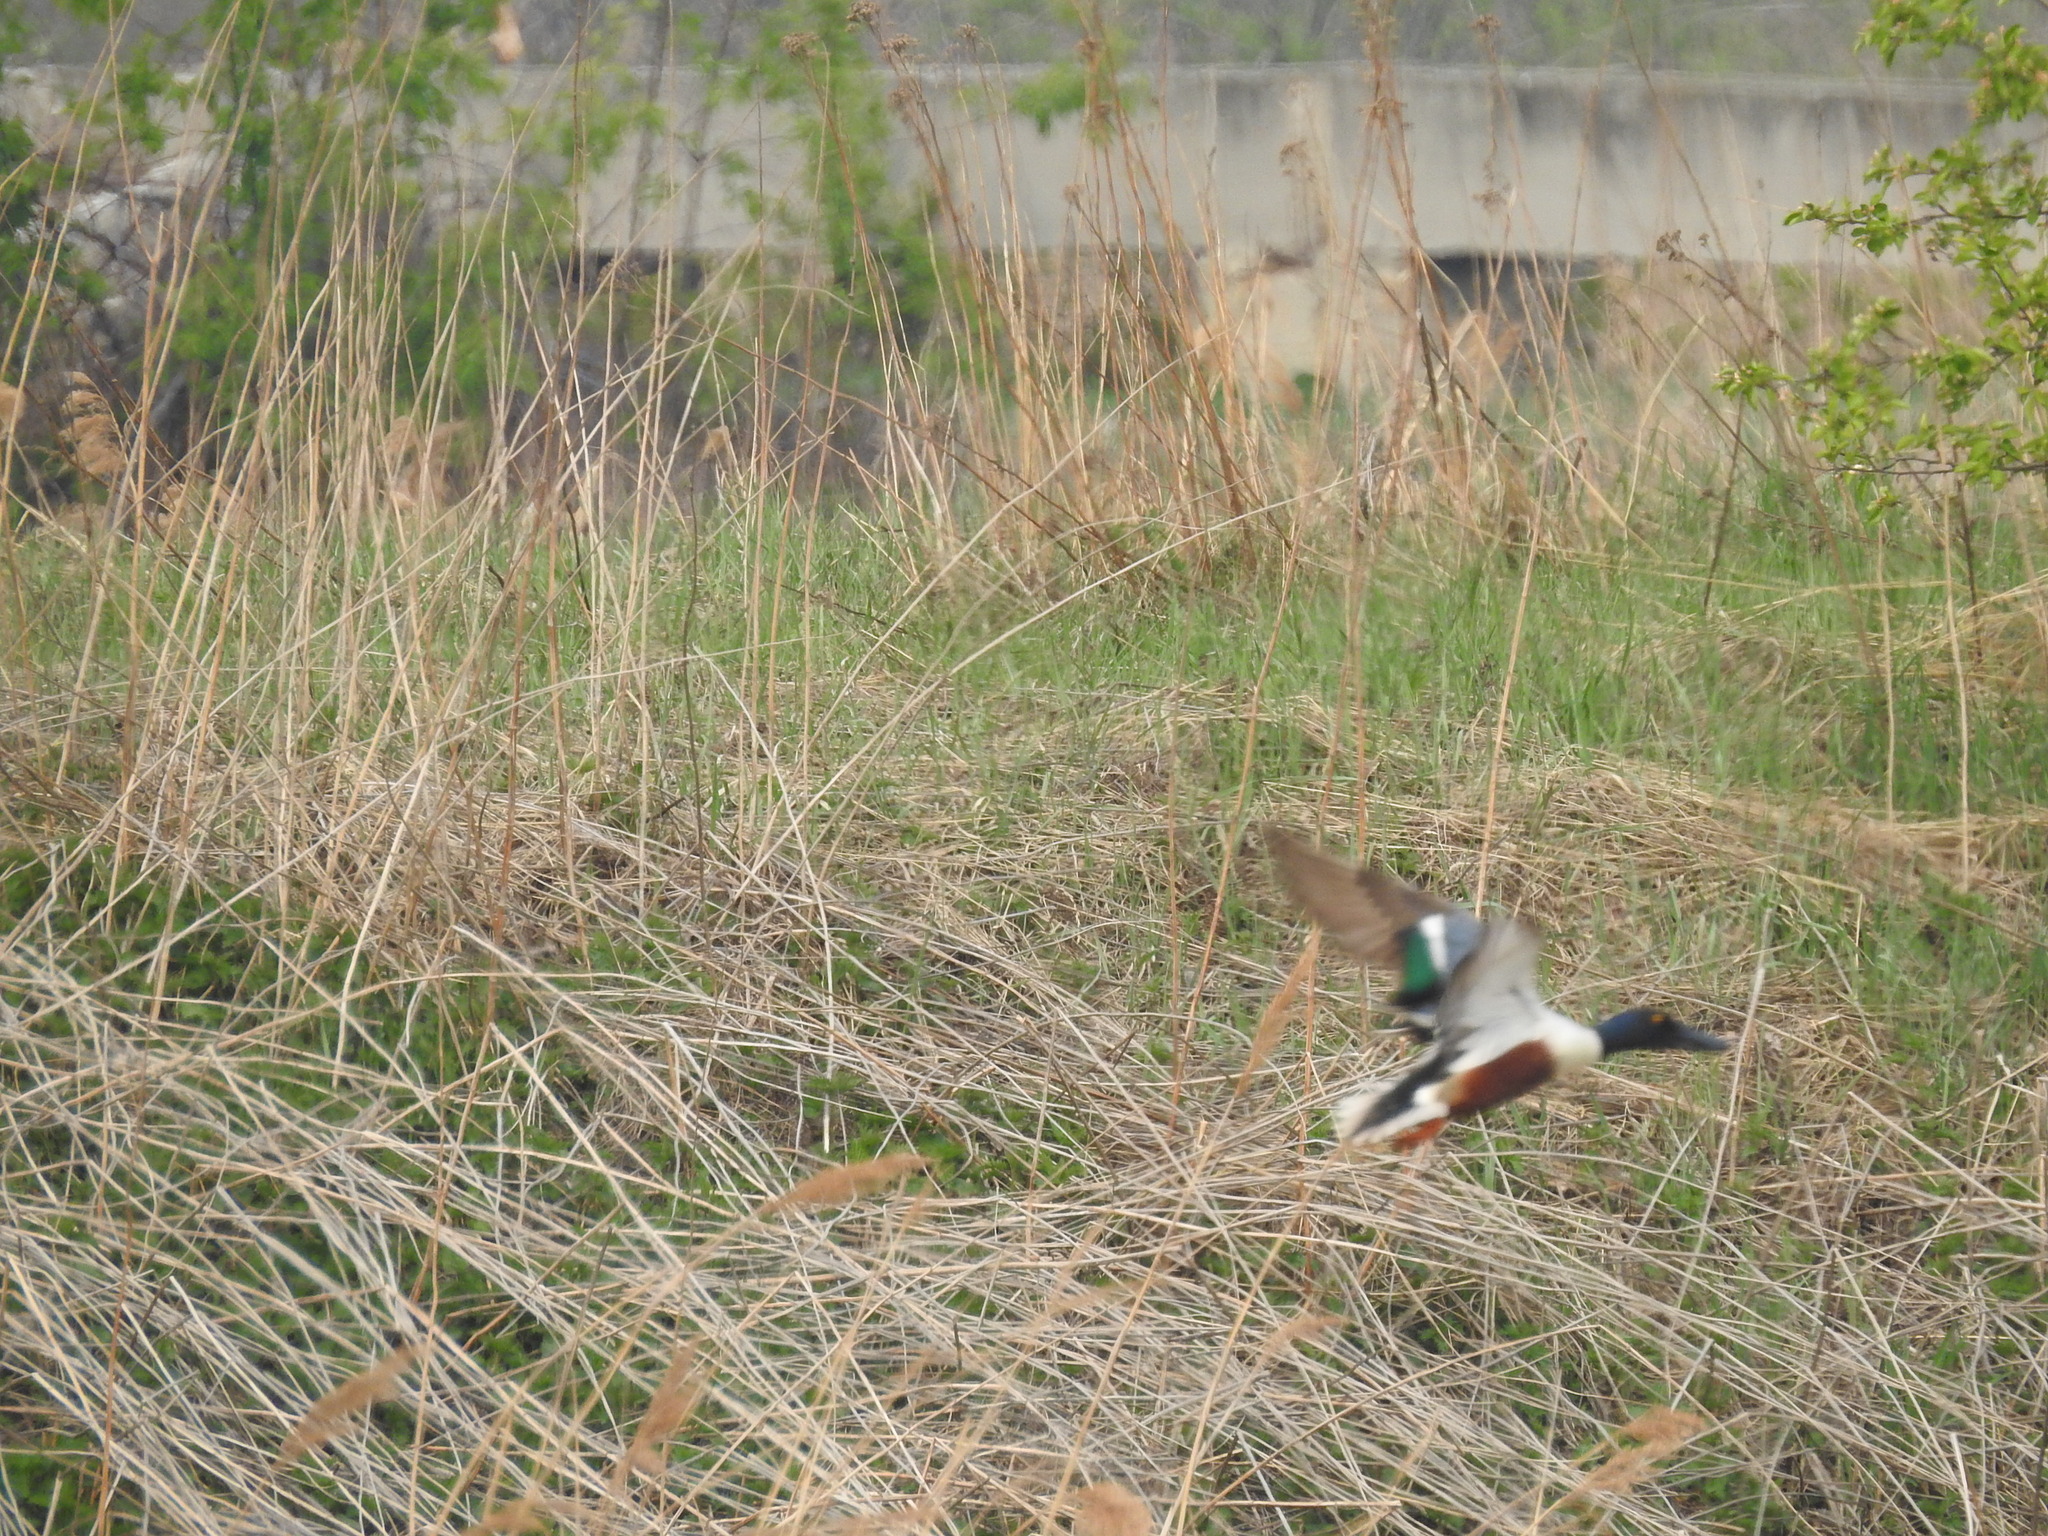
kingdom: Animalia
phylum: Chordata
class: Aves
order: Anseriformes
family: Anatidae
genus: Spatula
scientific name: Spatula clypeata
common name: Northern shoveler
